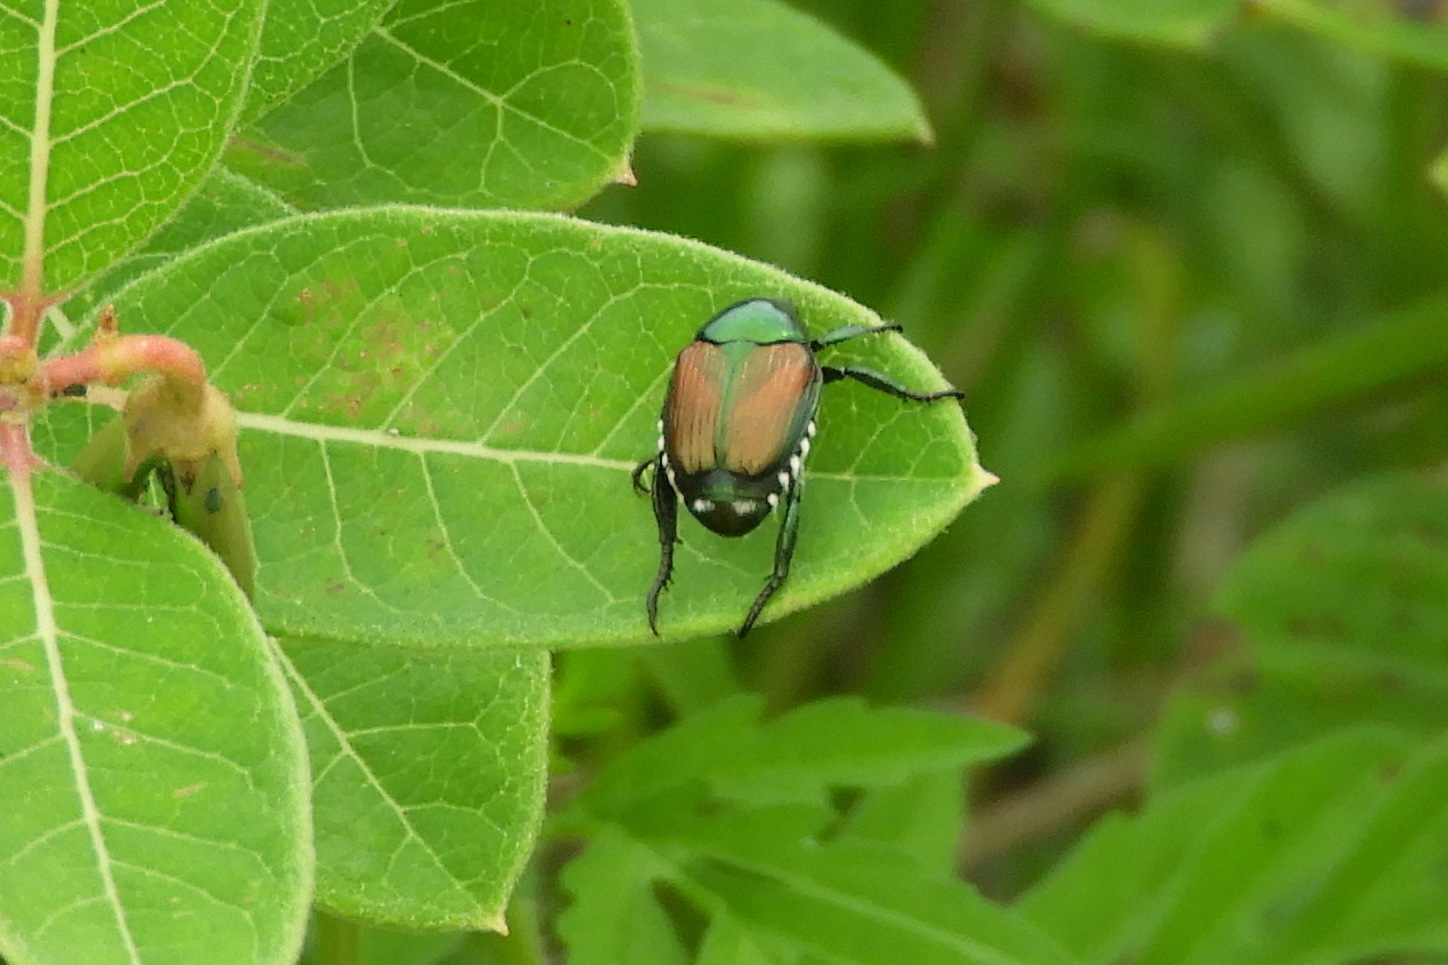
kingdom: Animalia
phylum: Arthropoda
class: Insecta
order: Coleoptera
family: Scarabaeidae
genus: Popillia
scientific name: Popillia japonica
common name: Japanese beetle
